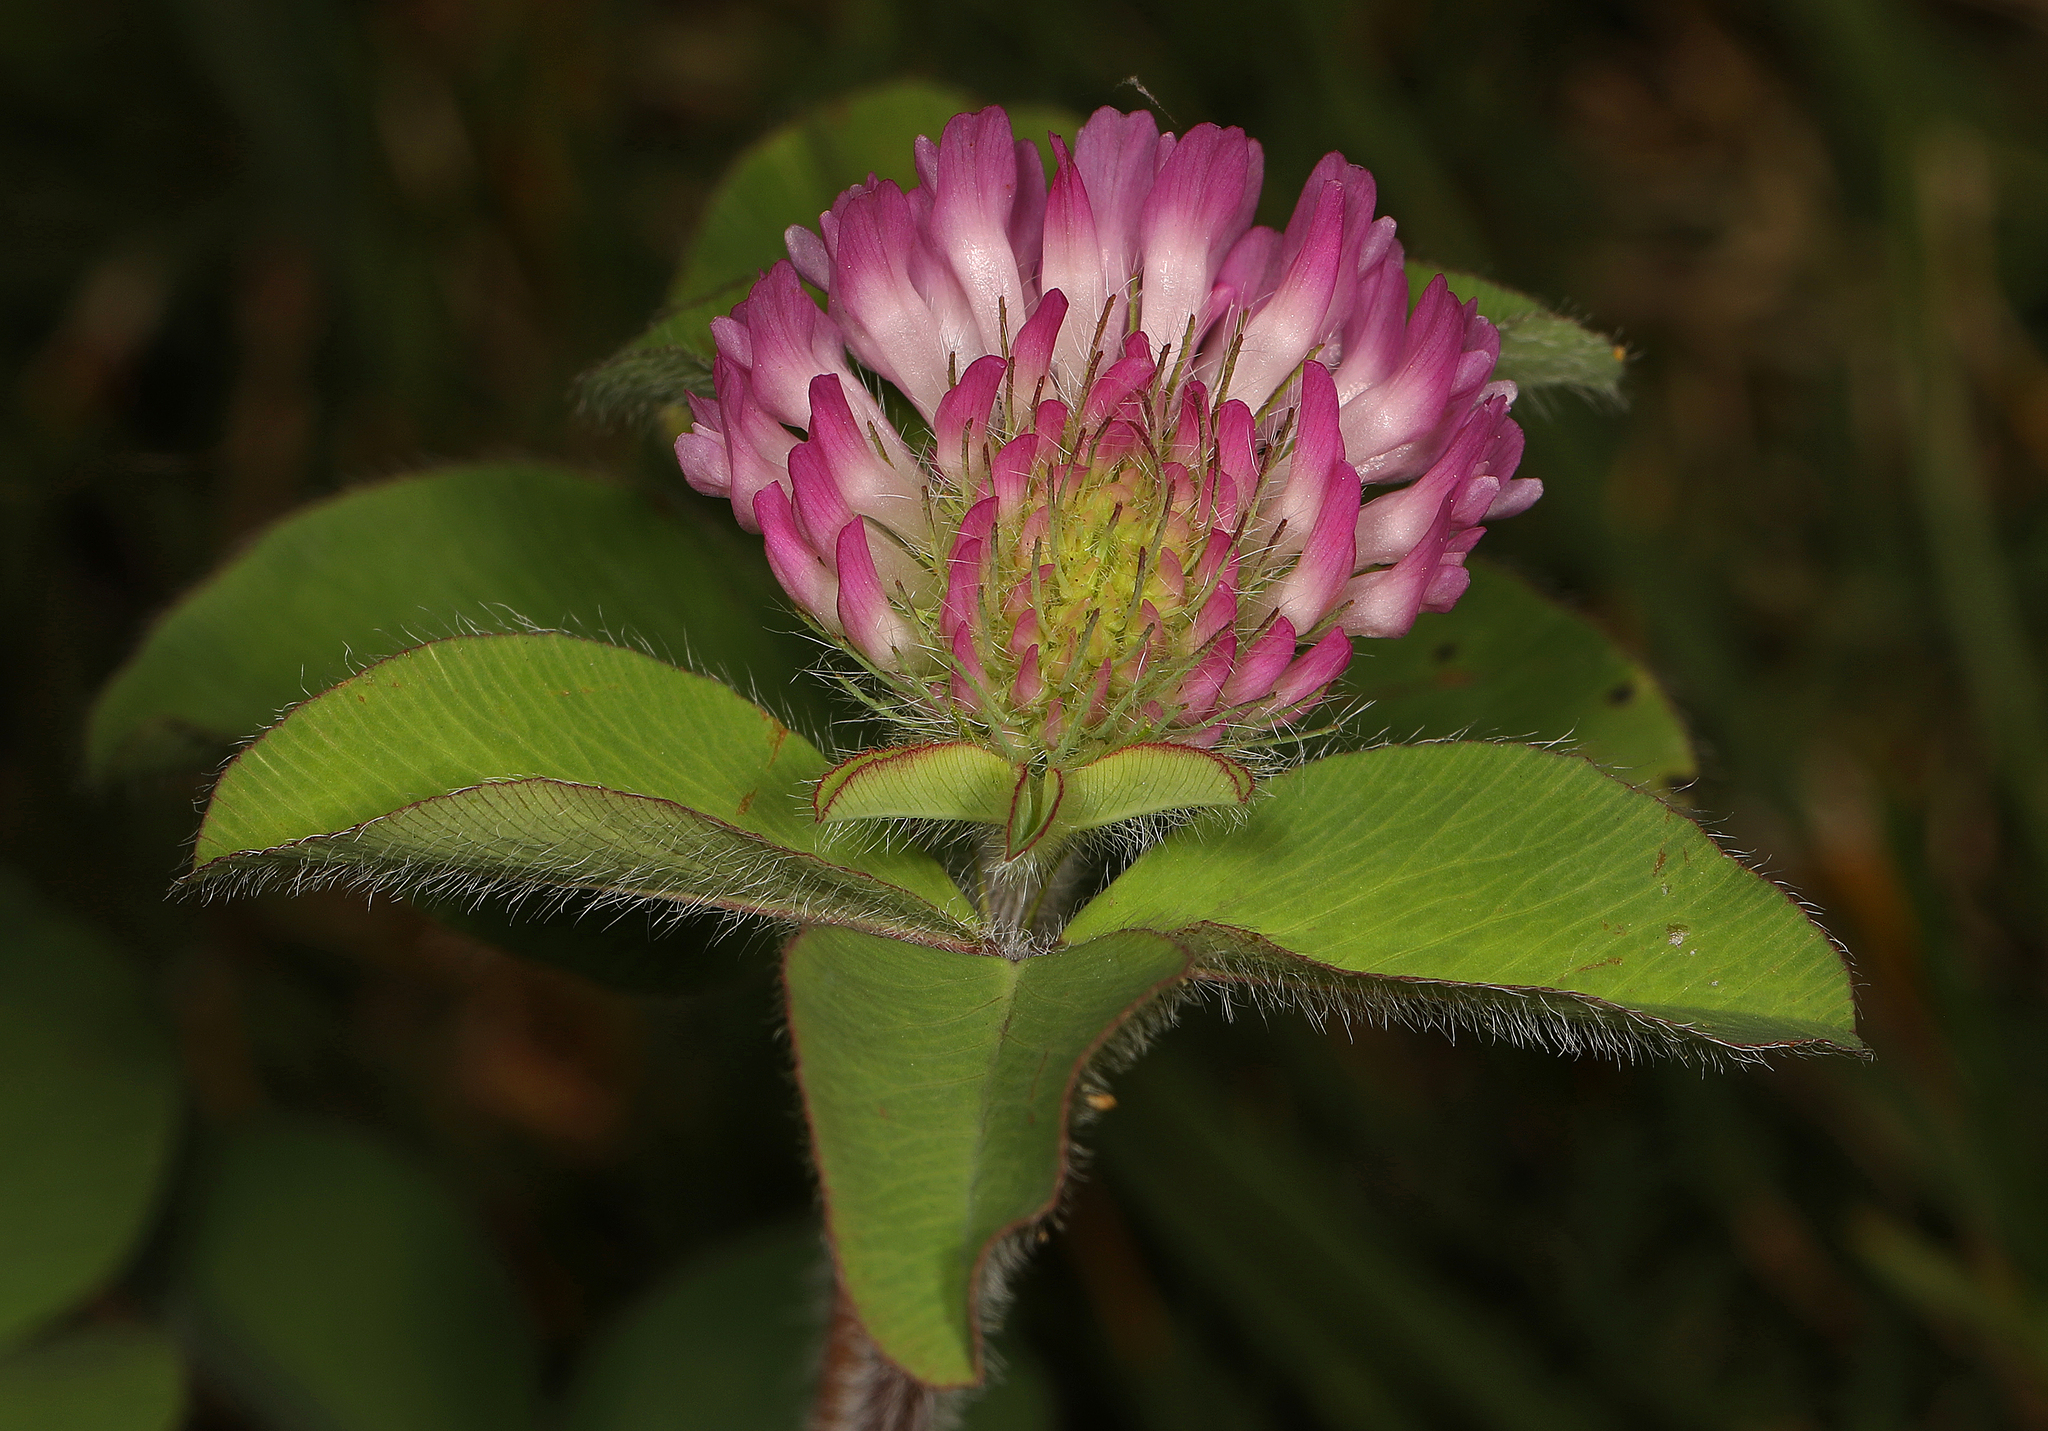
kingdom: Plantae
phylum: Tracheophyta
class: Magnoliopsida
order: Fabales
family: Fabaceae
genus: Trifolium
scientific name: Trifolium pratense
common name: Red clover
